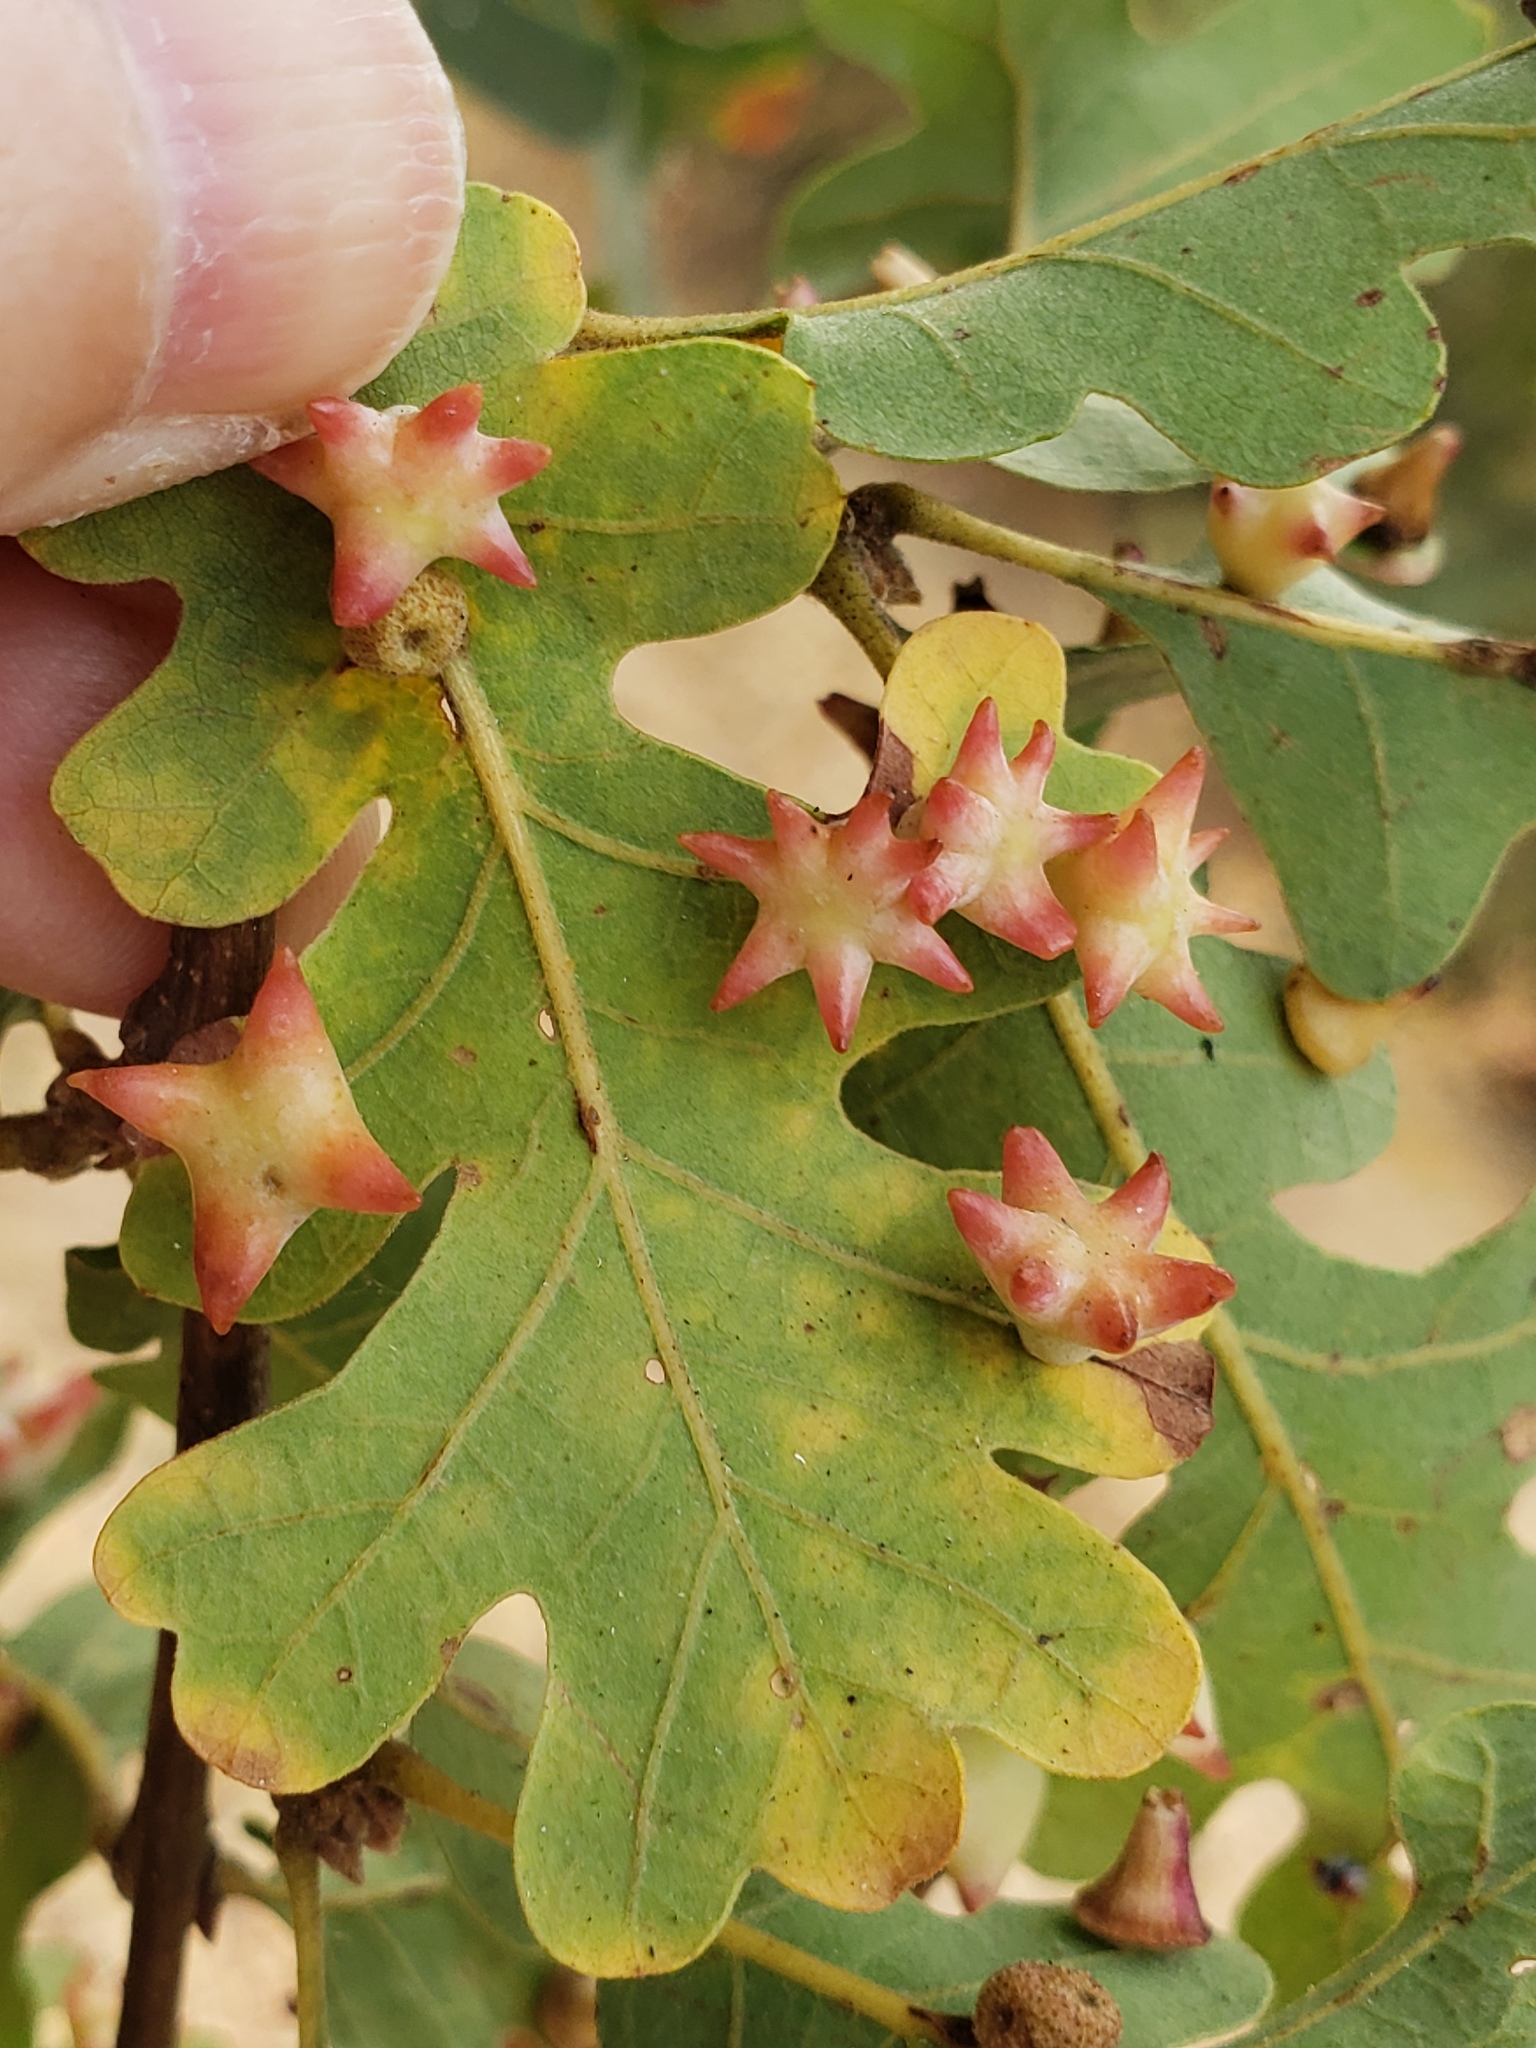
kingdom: Animalia
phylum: Arthropoda
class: Insecta
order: Hymenoptera
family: Cynipidae
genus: Cynips
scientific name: Cynips douglasi
